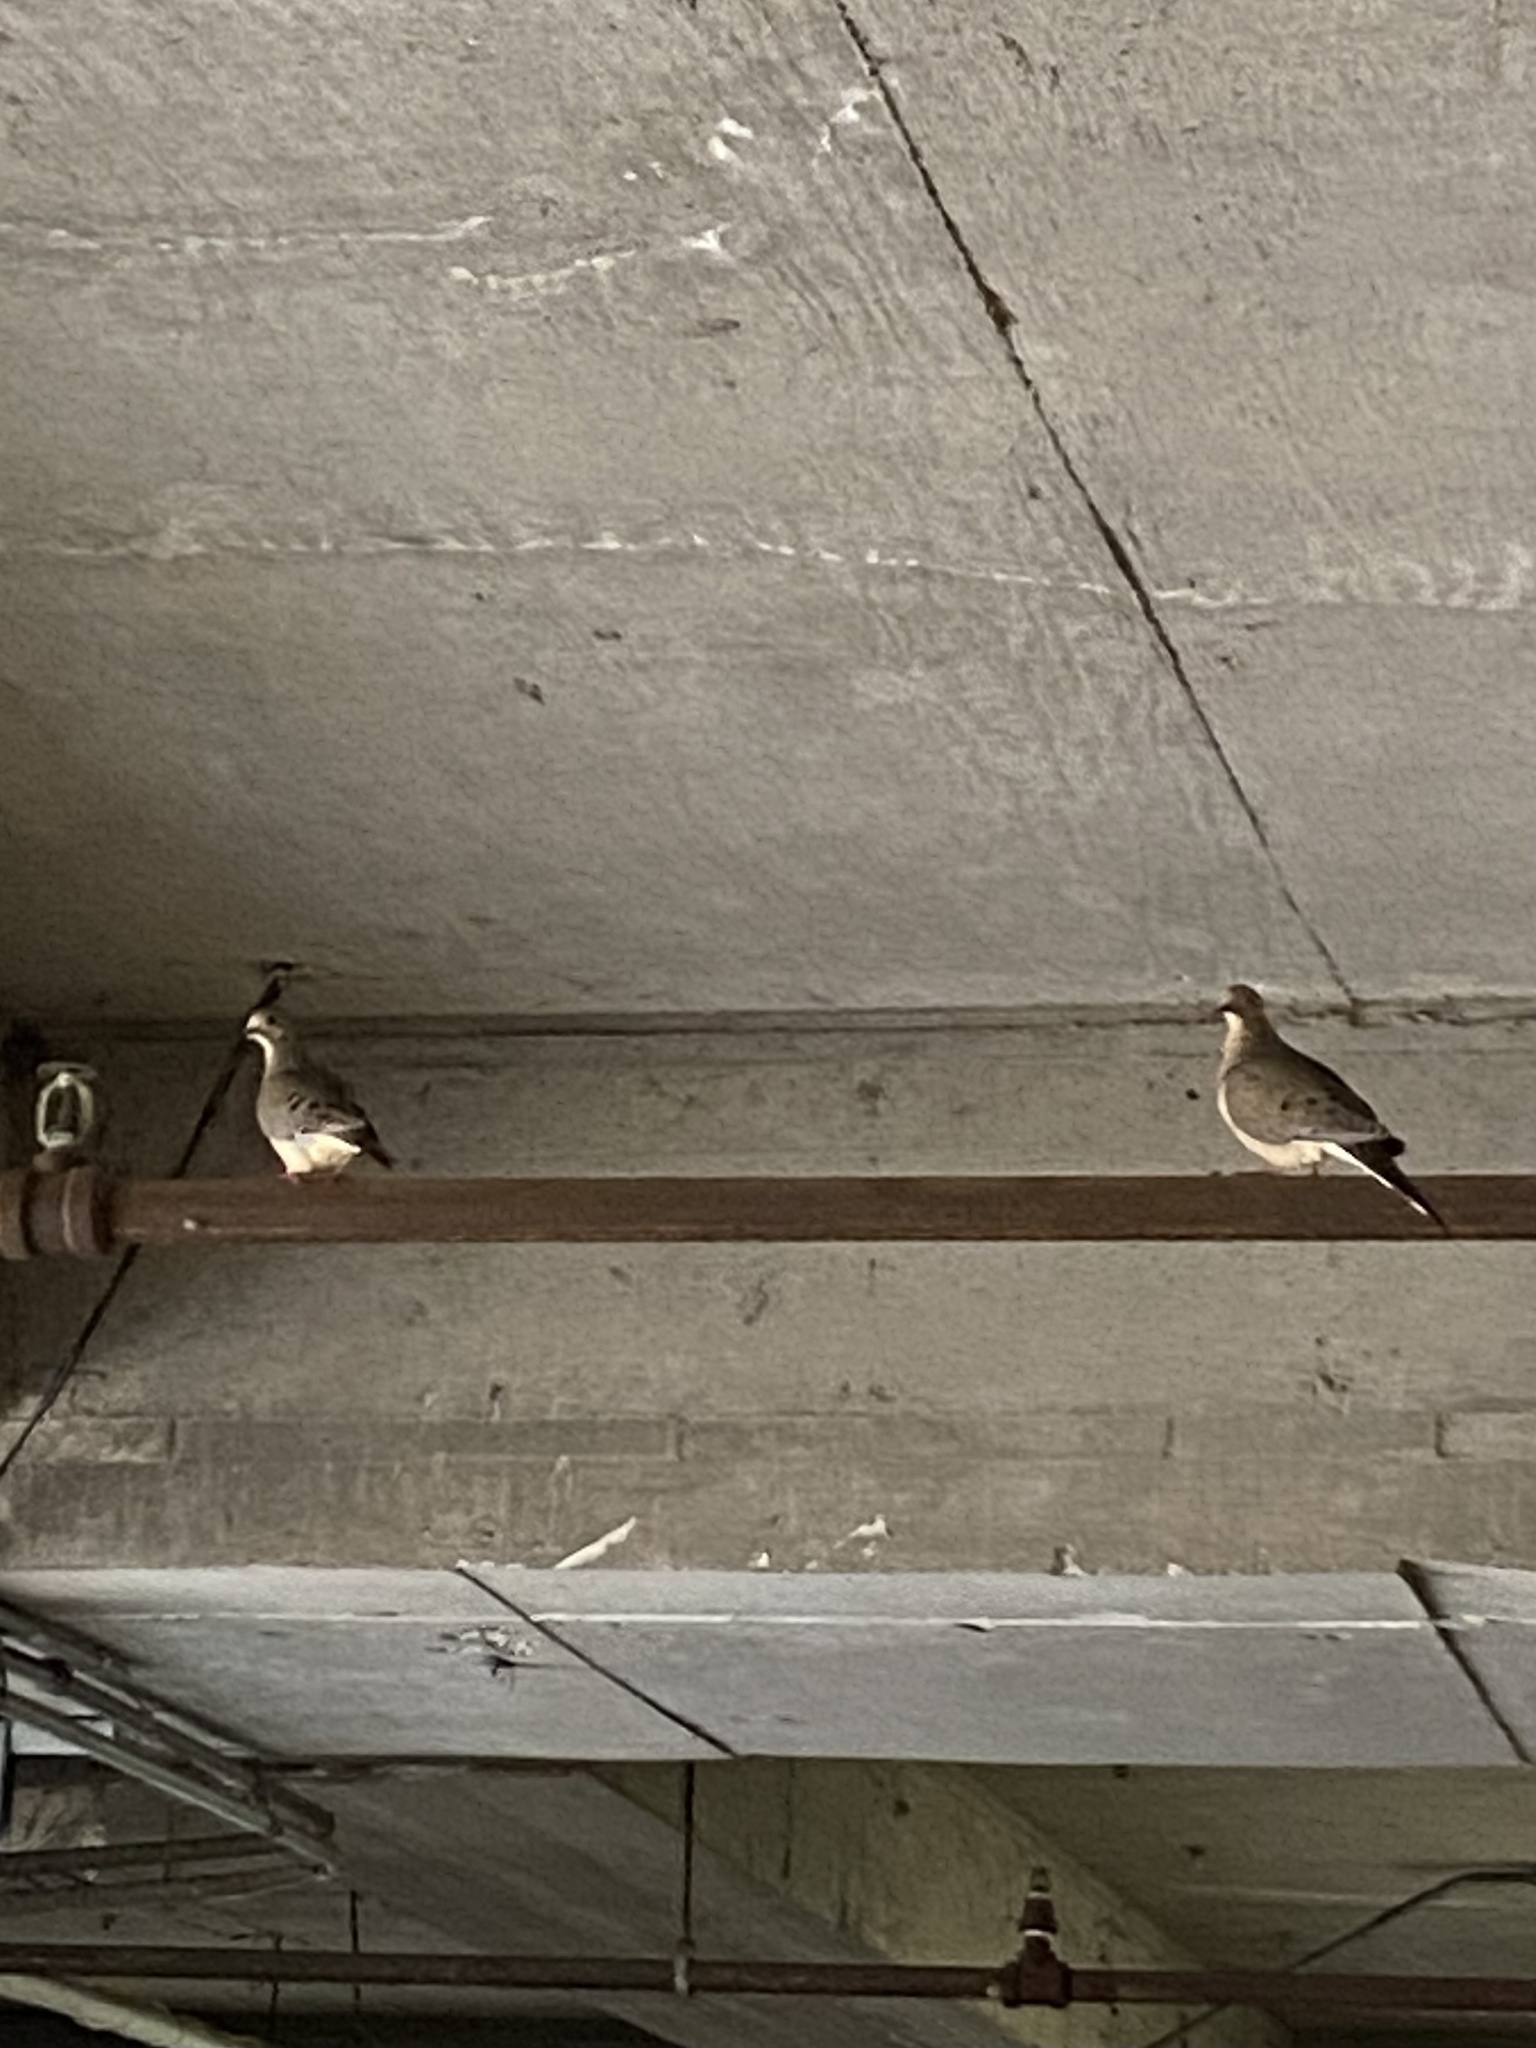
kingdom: Animalia
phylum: Chordata
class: Aves
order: Columbiformes
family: Columbidae
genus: Zenaida
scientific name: Zenaida macroura
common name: Mourning dove
